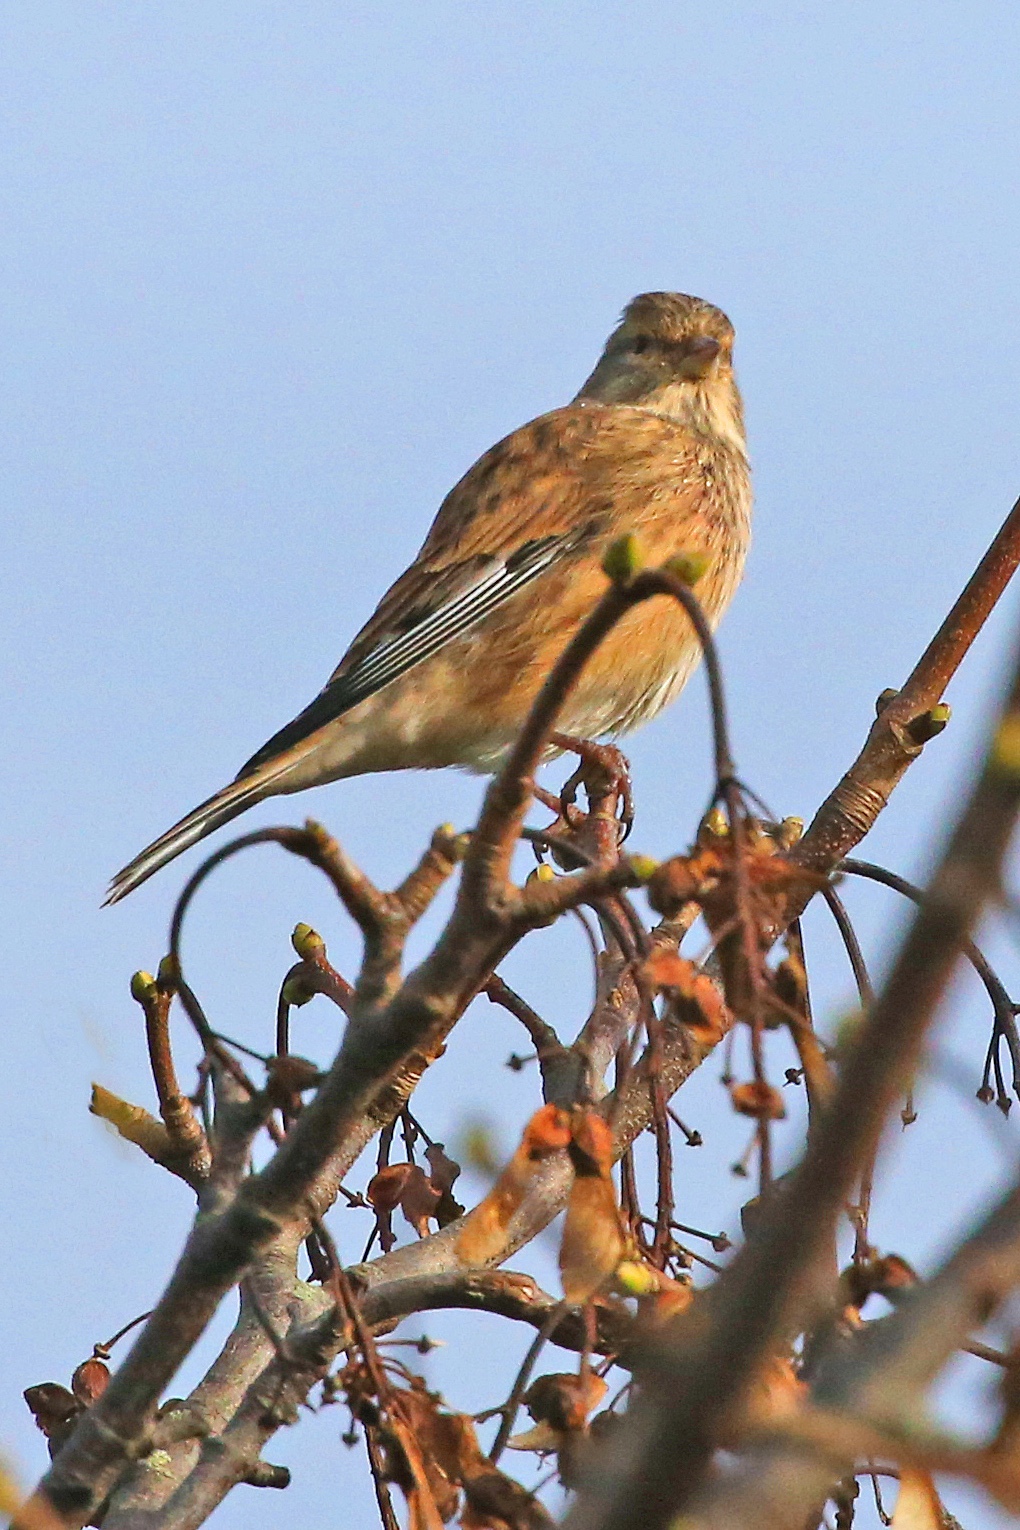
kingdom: Animalia
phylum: Chordata
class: Aves
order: Passeriformes
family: Fringillidae
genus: Linaria
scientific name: Linaria cannabina
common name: Common linnet
